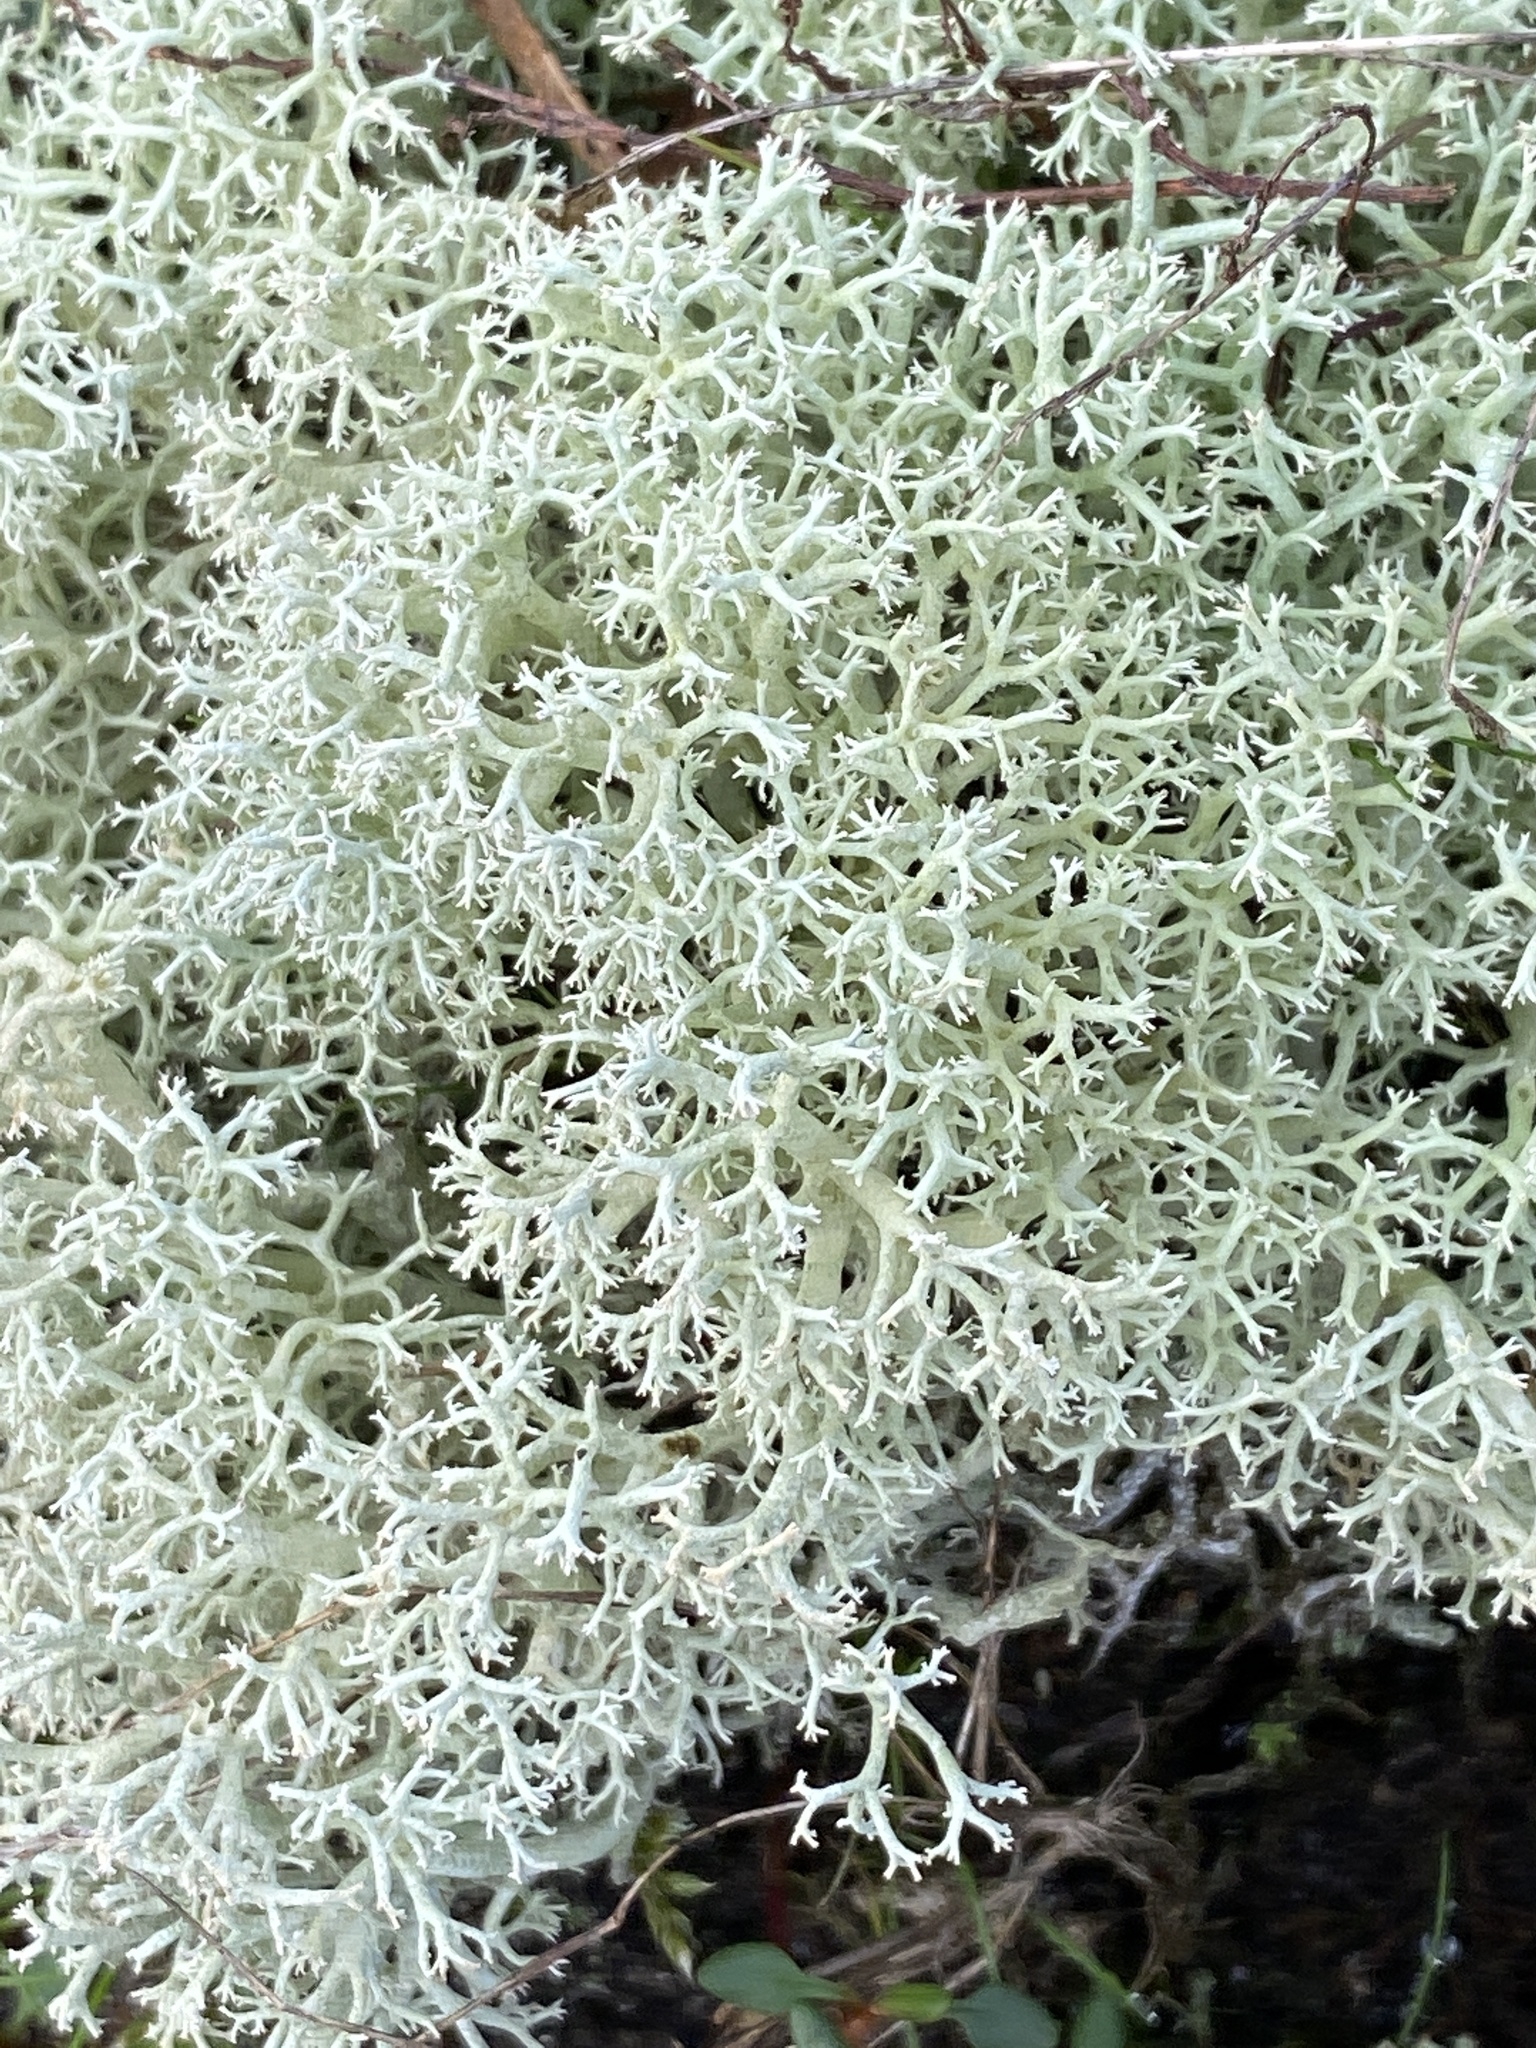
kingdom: Fungi
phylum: Ascomycota
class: Lecanoromycetes
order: Lecanorales
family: Cladoniaceae
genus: Cladonia
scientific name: Cladonia portentosa
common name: Reindeer lichen
